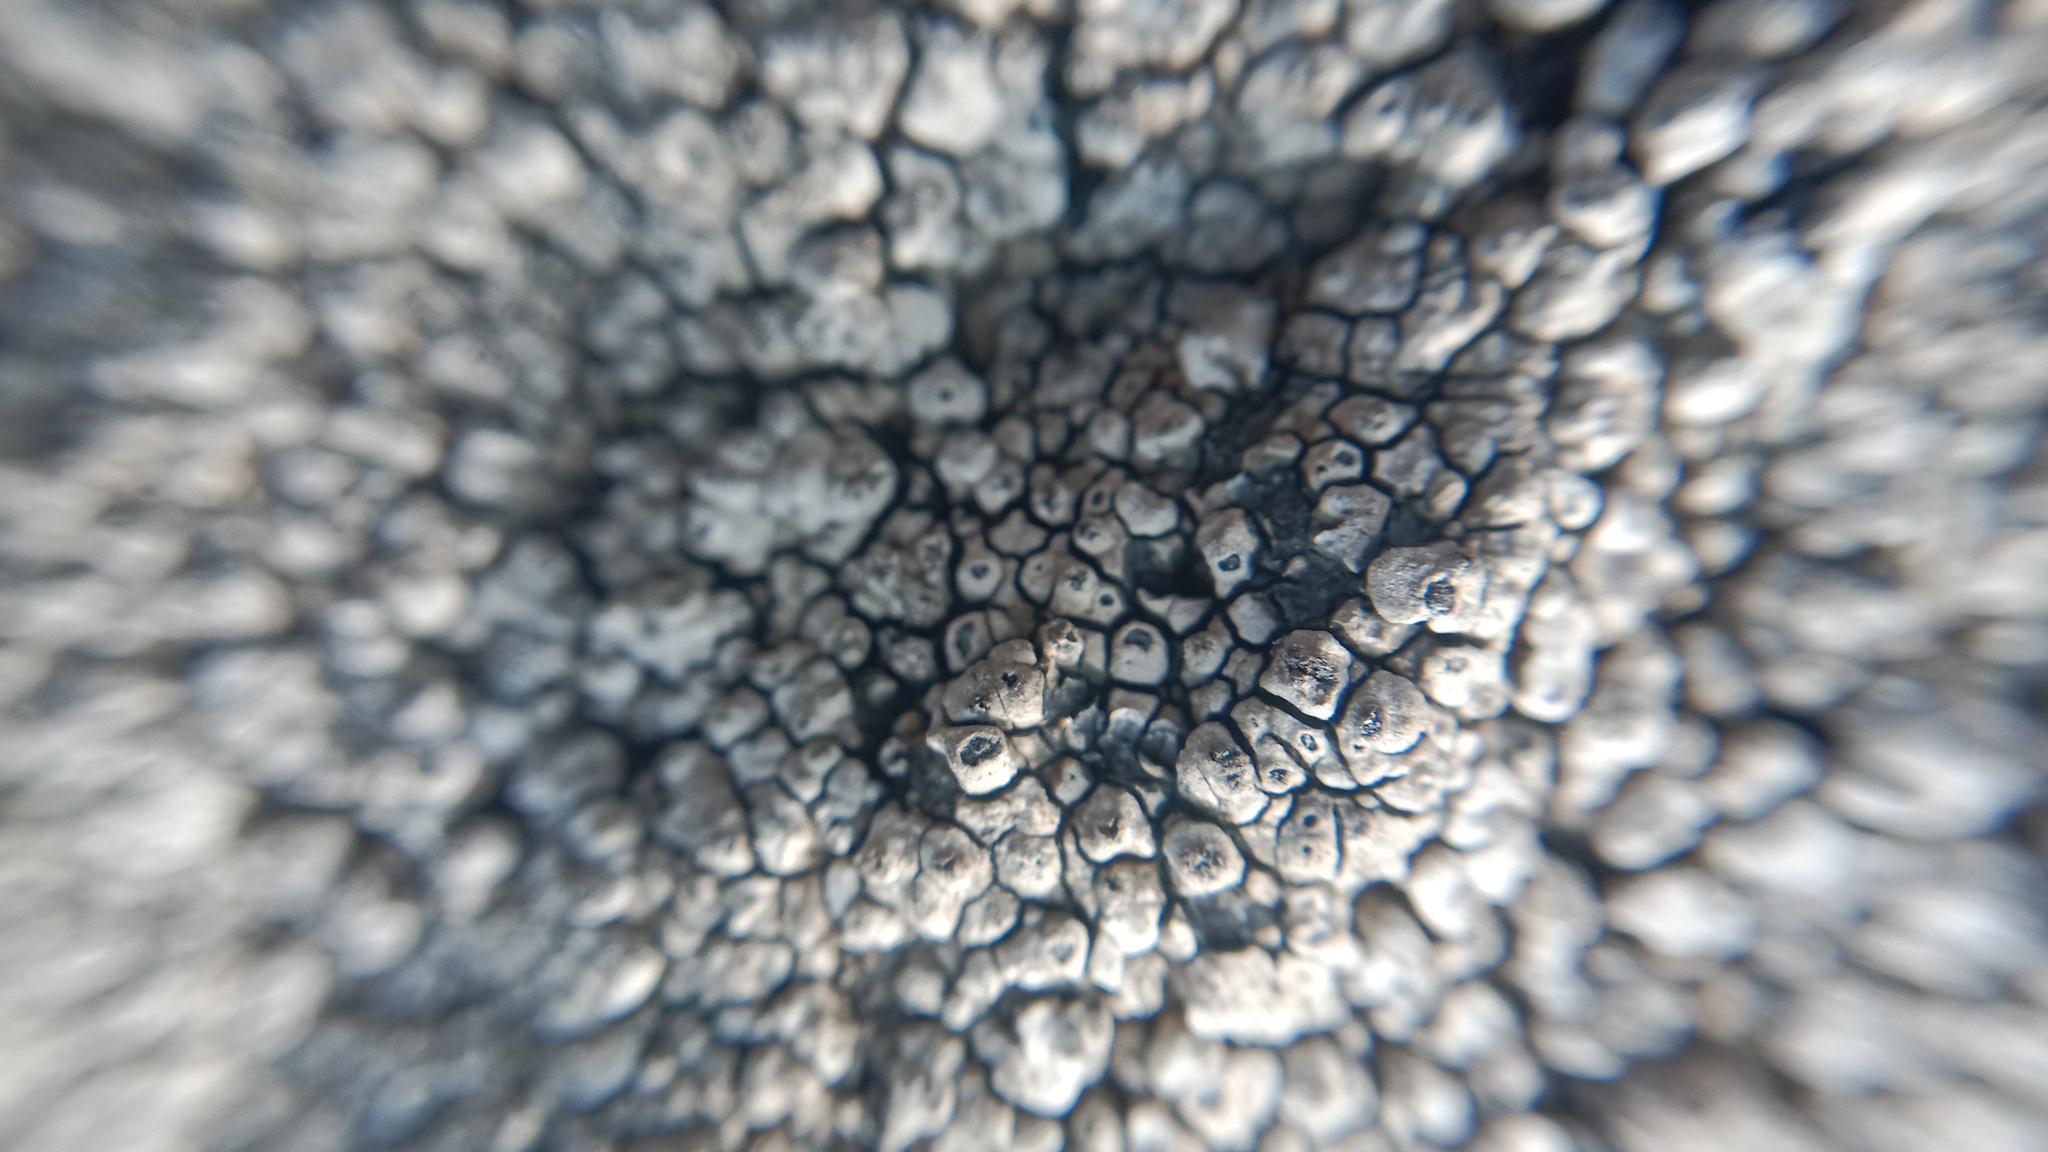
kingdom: Fungi
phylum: Ascomycota
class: Lecanoromycetes
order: Pertusariales
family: Megasporaceae
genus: Aspiciliella
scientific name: Aspiciliella intermutans
